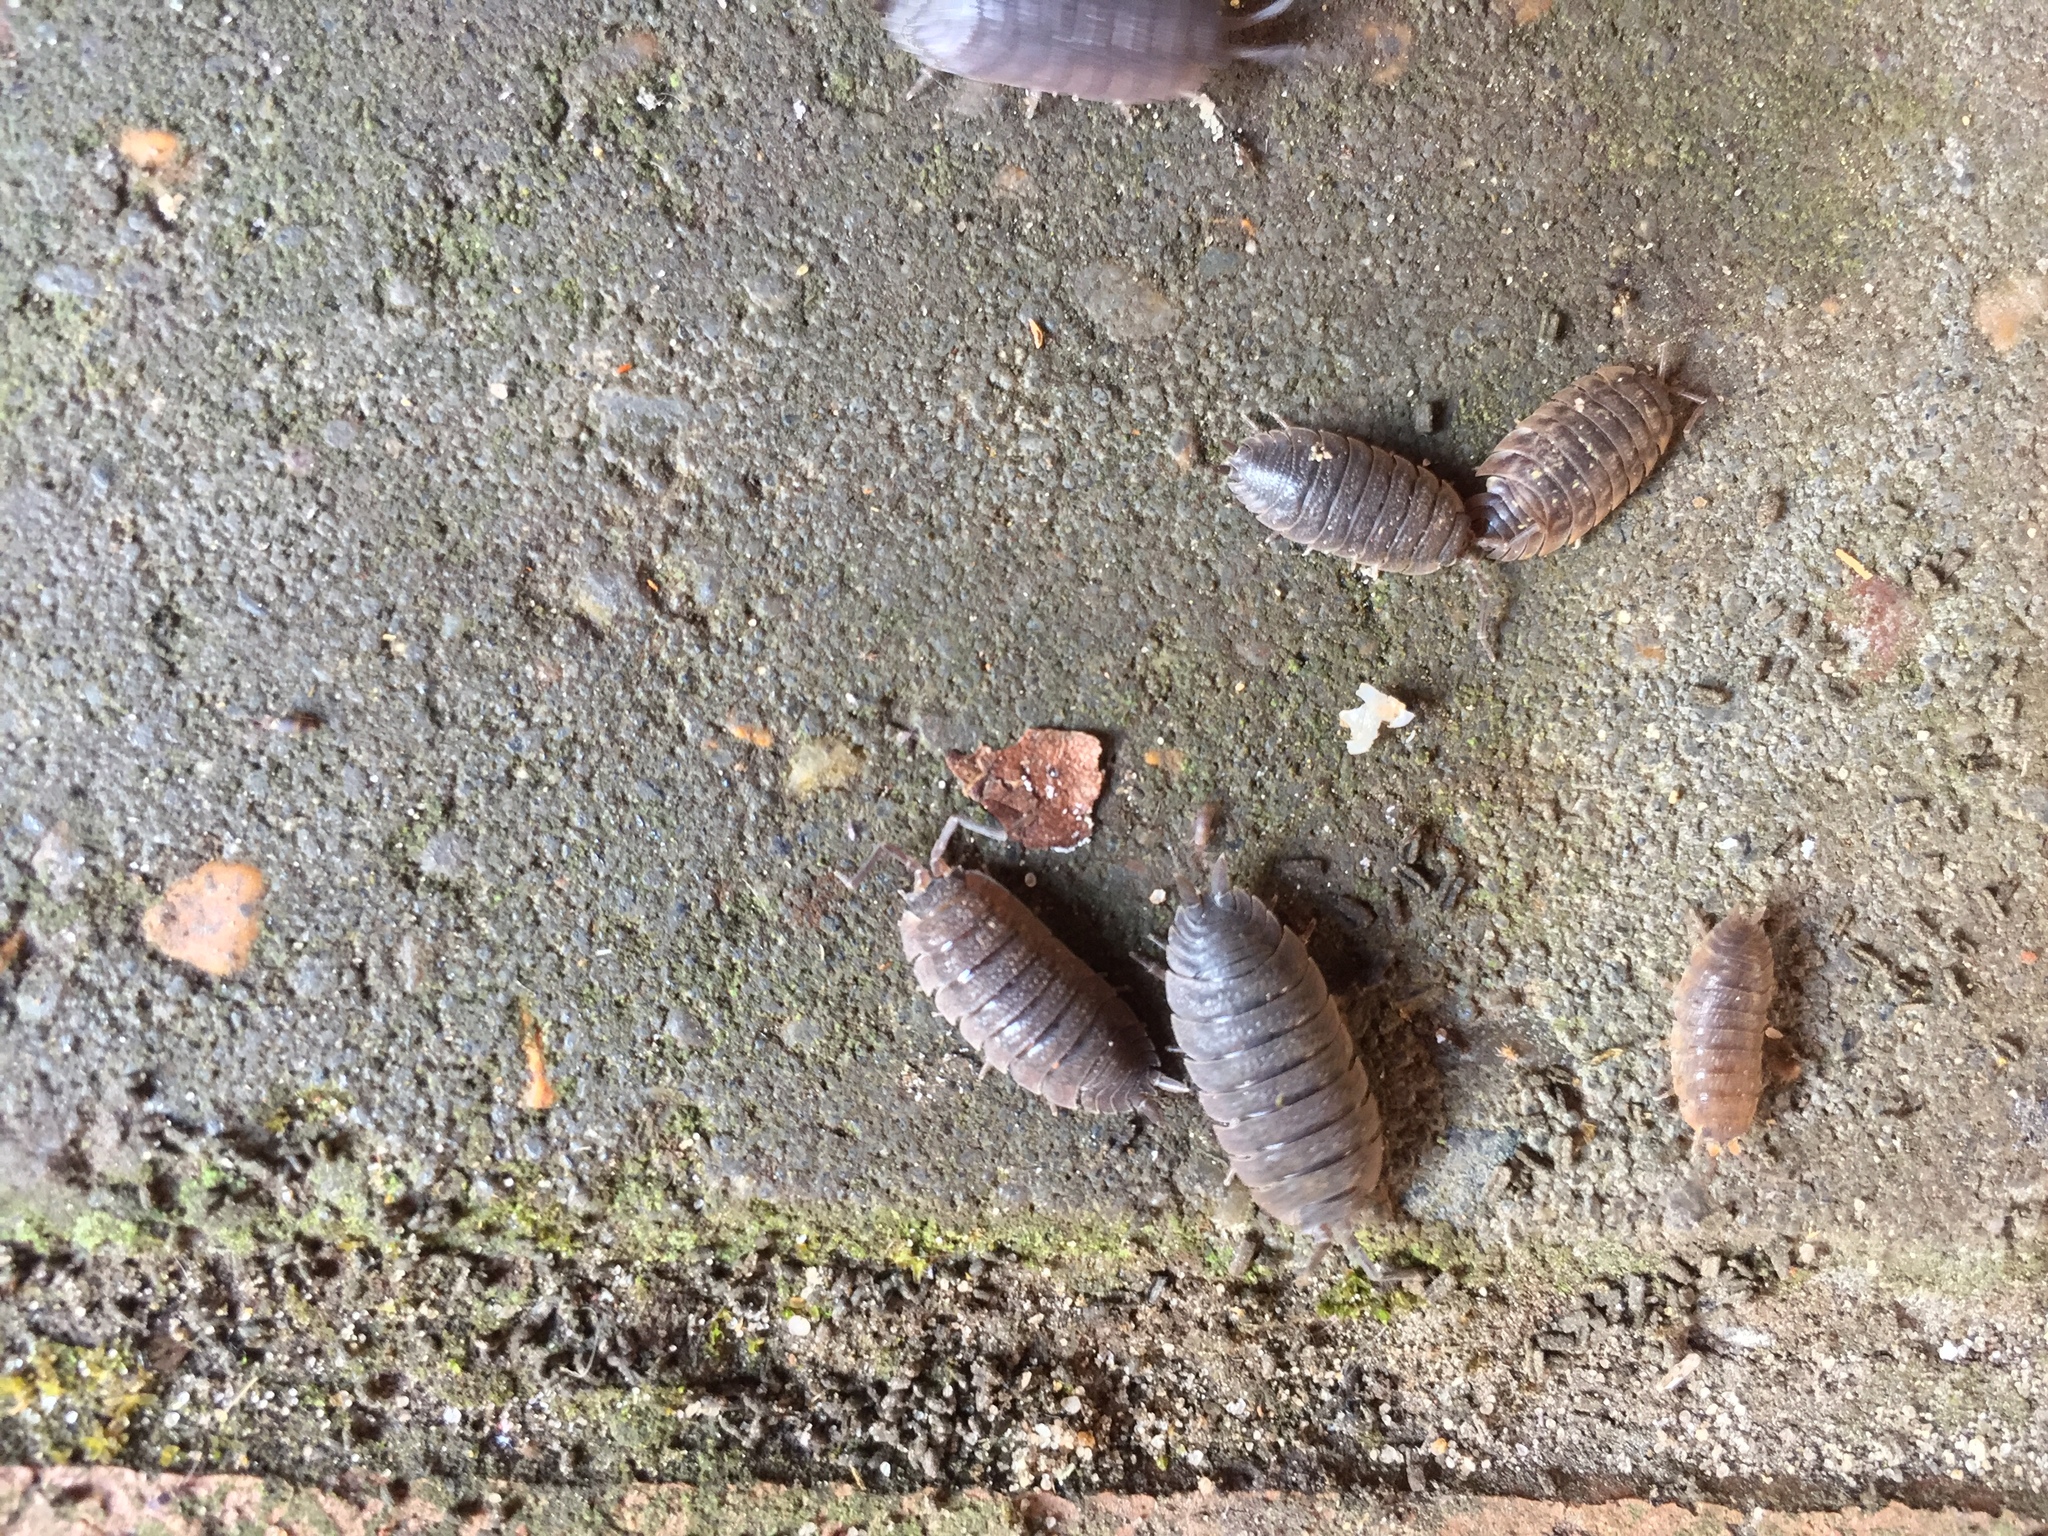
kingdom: Animalia
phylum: Arthropoda
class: Malacostraca
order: Isopoda
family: Porcellionidae
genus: Porcellio
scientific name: Porcellio scaber
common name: Common rough woodlouse
